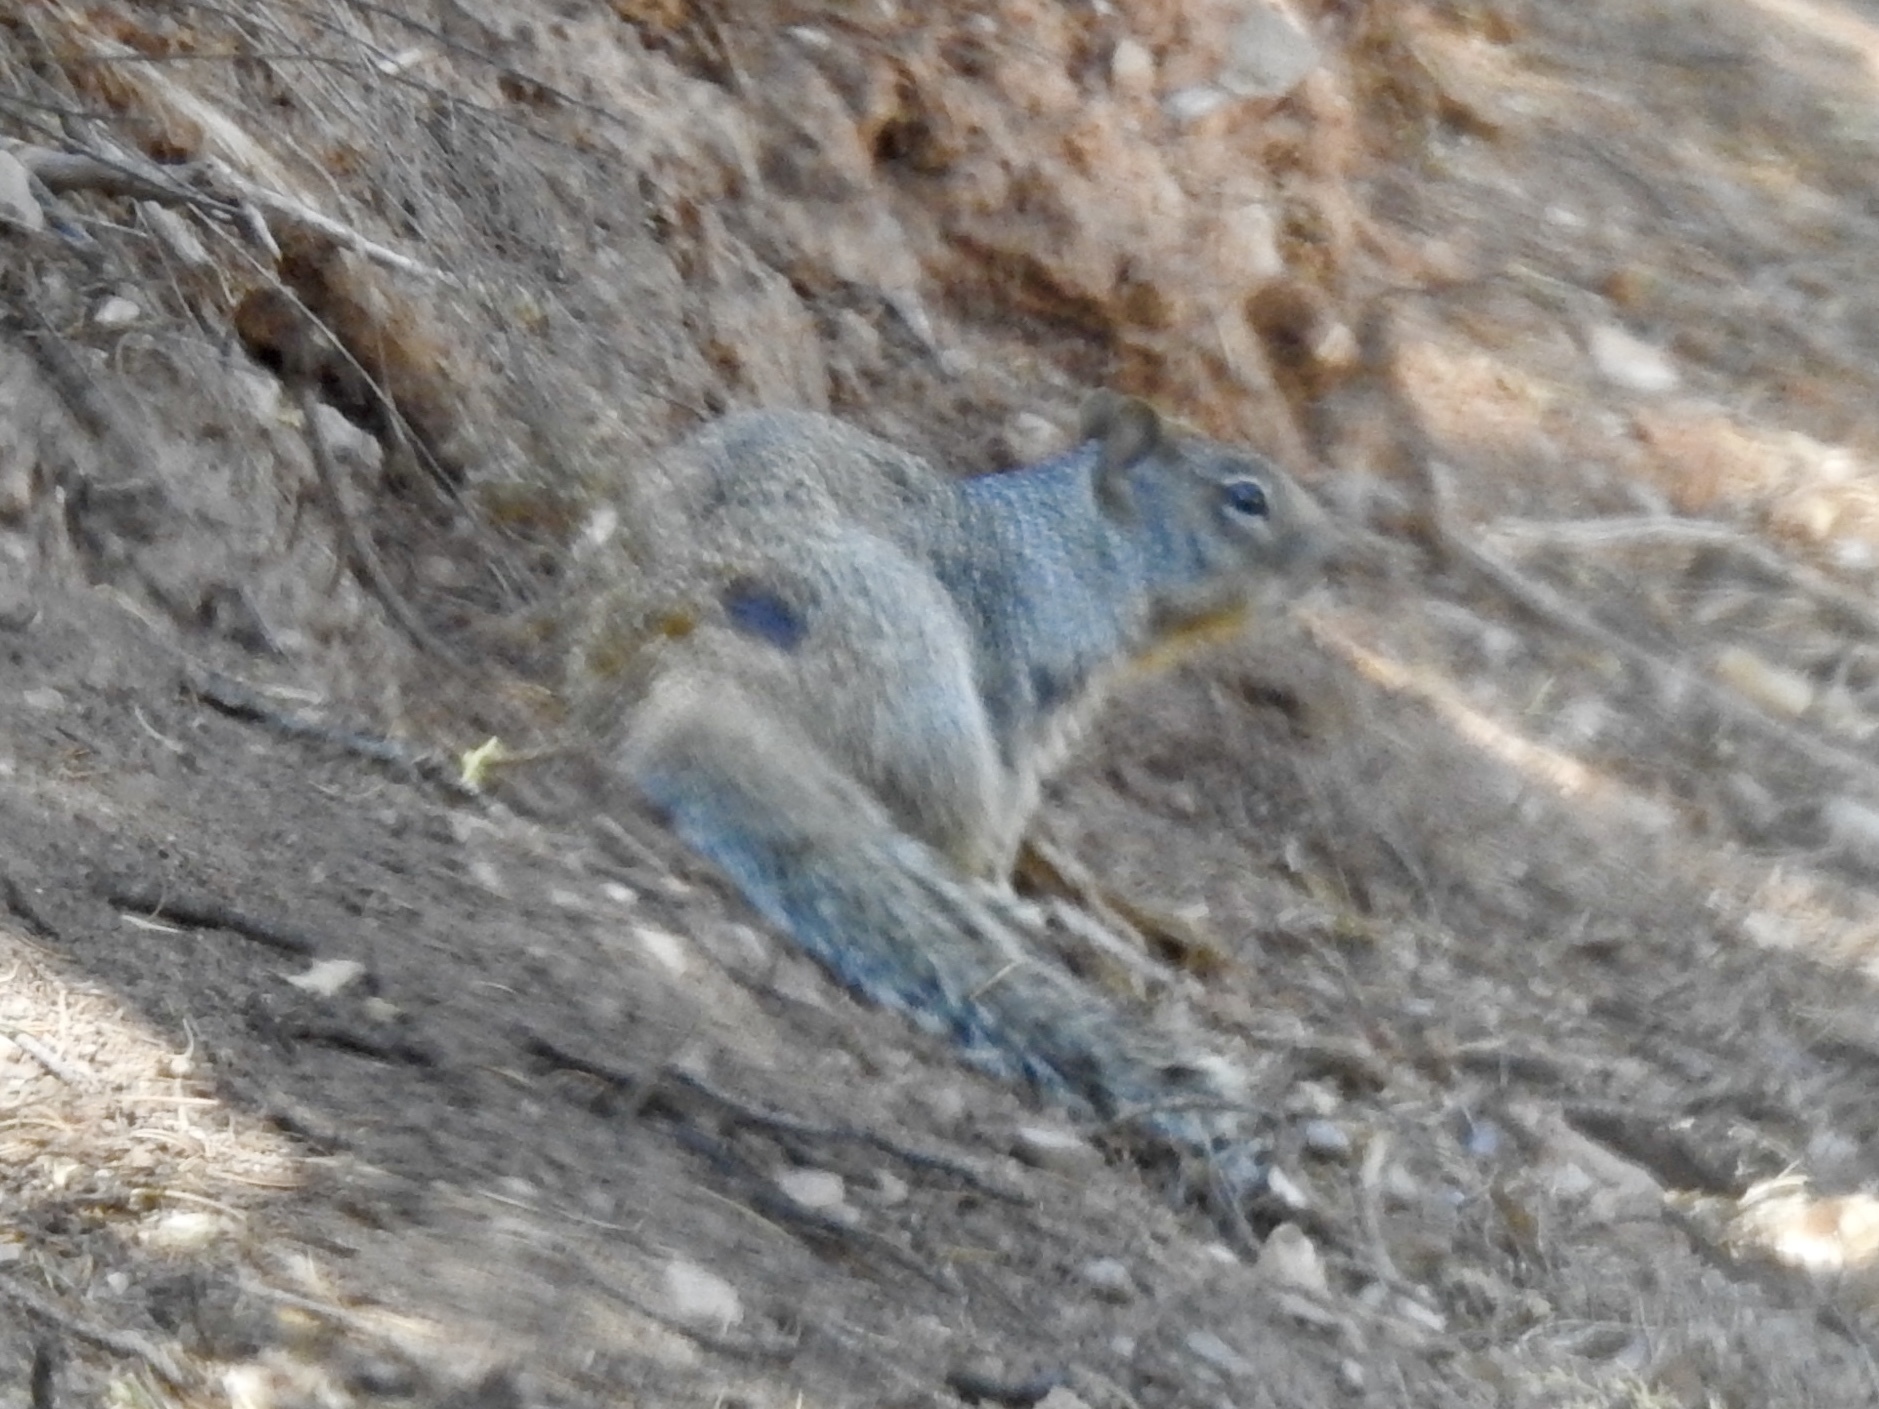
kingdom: Animalia
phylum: Chordata
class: Mammalia
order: Rodentia
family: Sciuridae
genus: Otospermophilus
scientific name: Otospermophilus variegatus
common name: Rock squirrel
